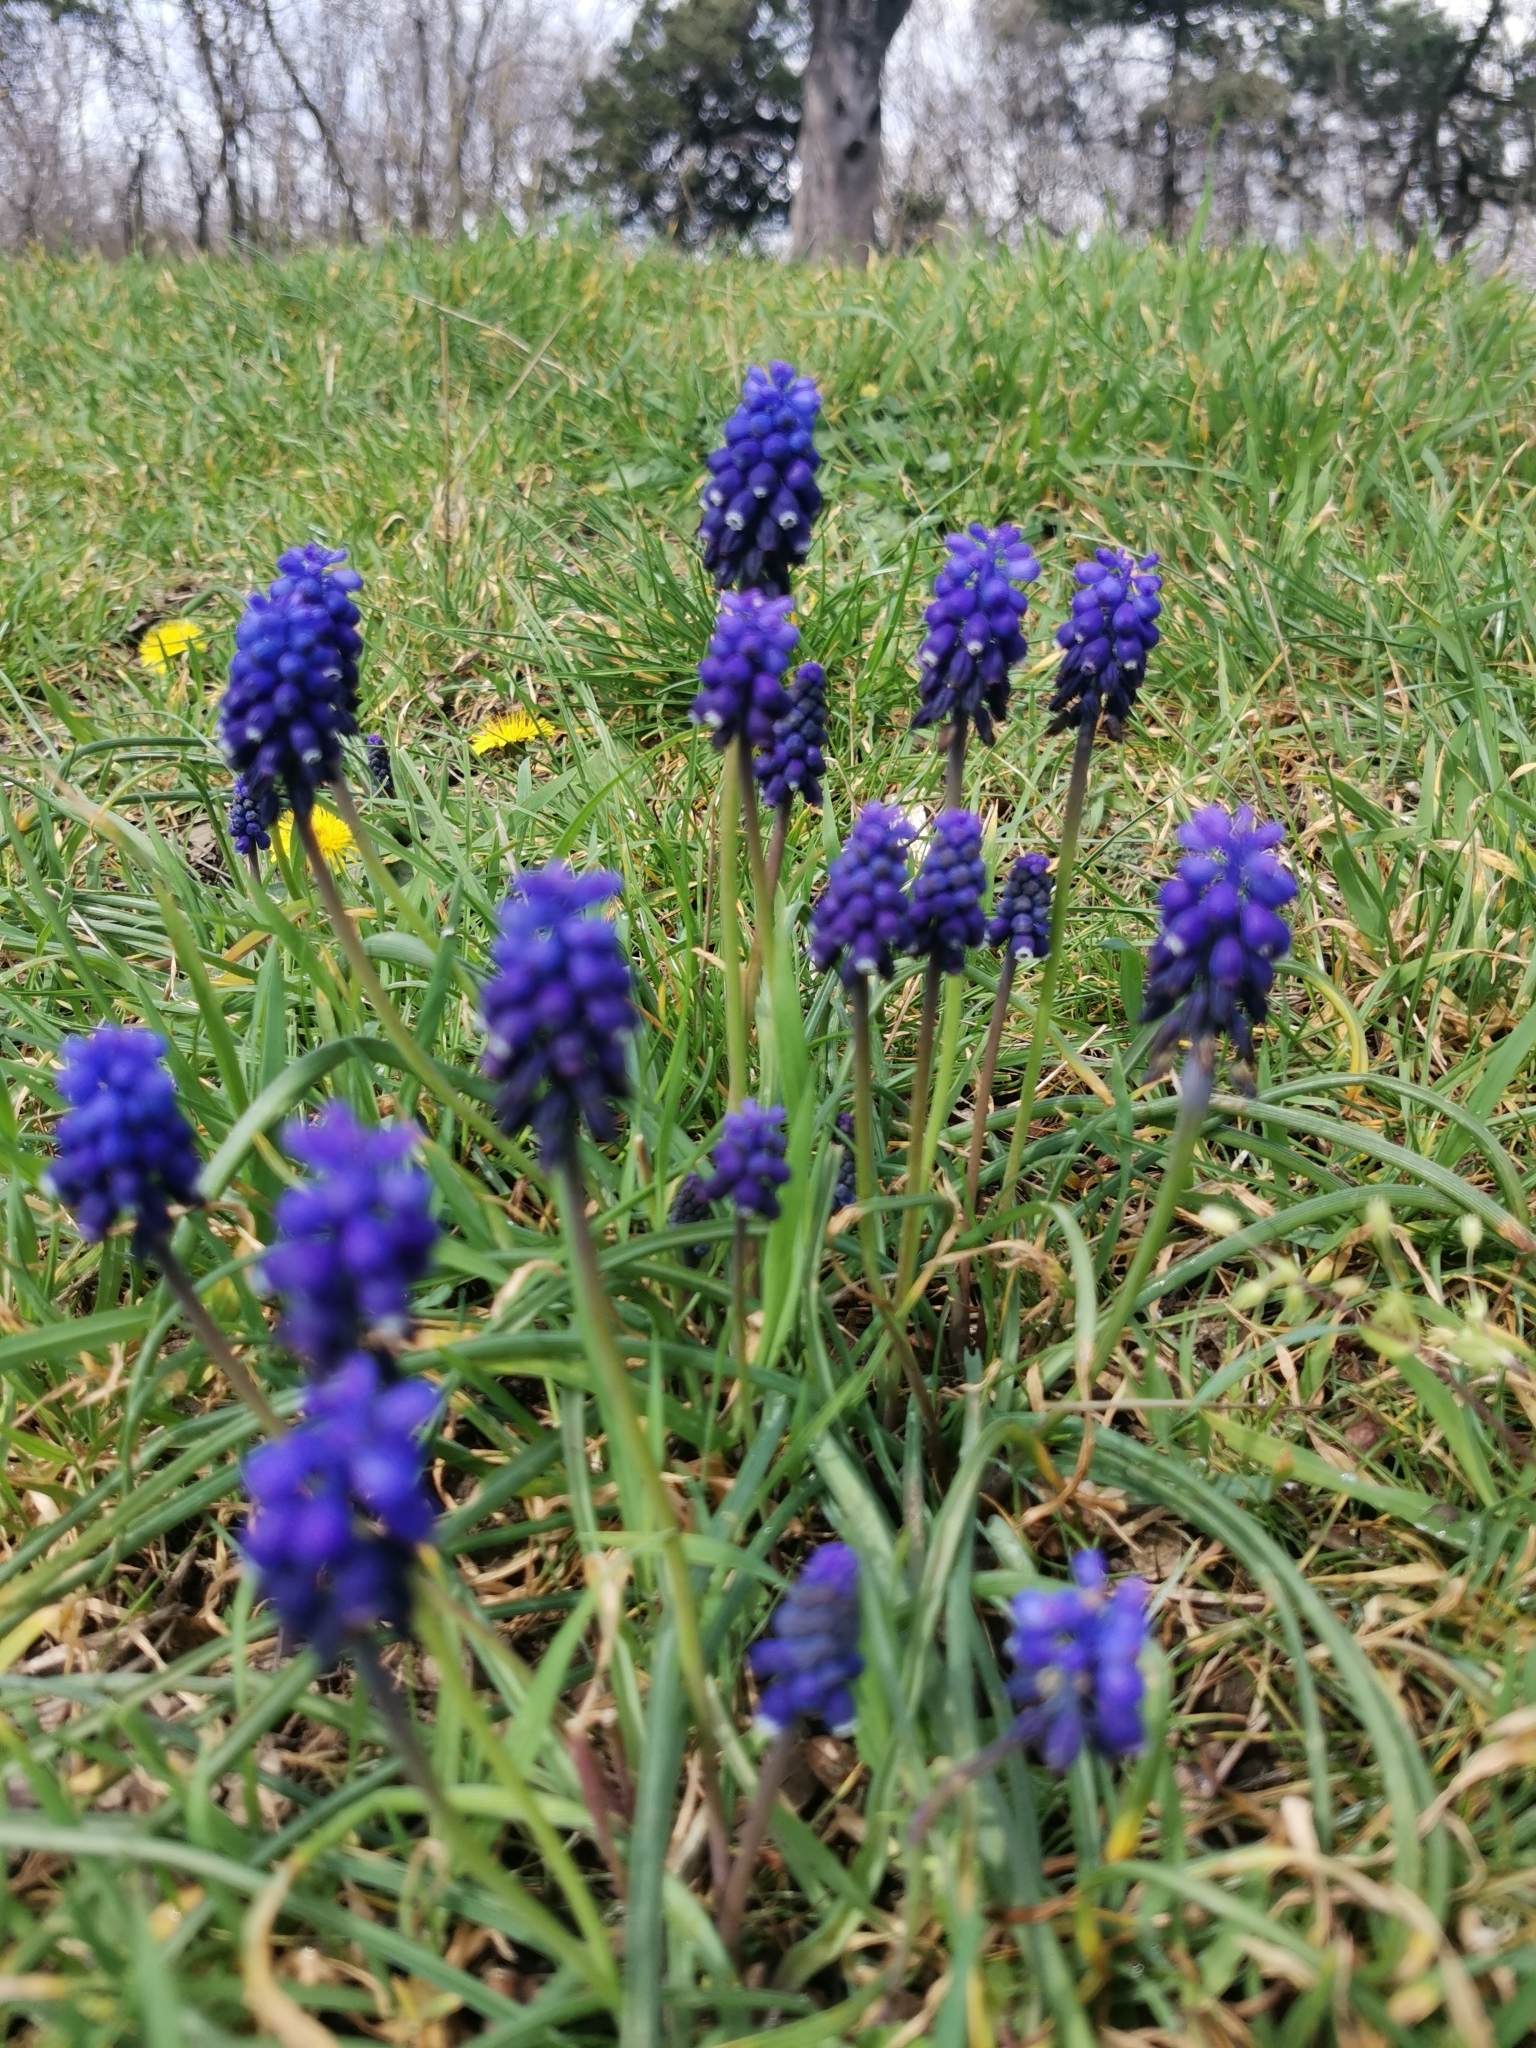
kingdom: Plantae
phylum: Tracheophyta
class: Liliopsida
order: Asparagales
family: Asparagaceae
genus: Muscari
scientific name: Muscari neglectum
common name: Grape-hyacinth
